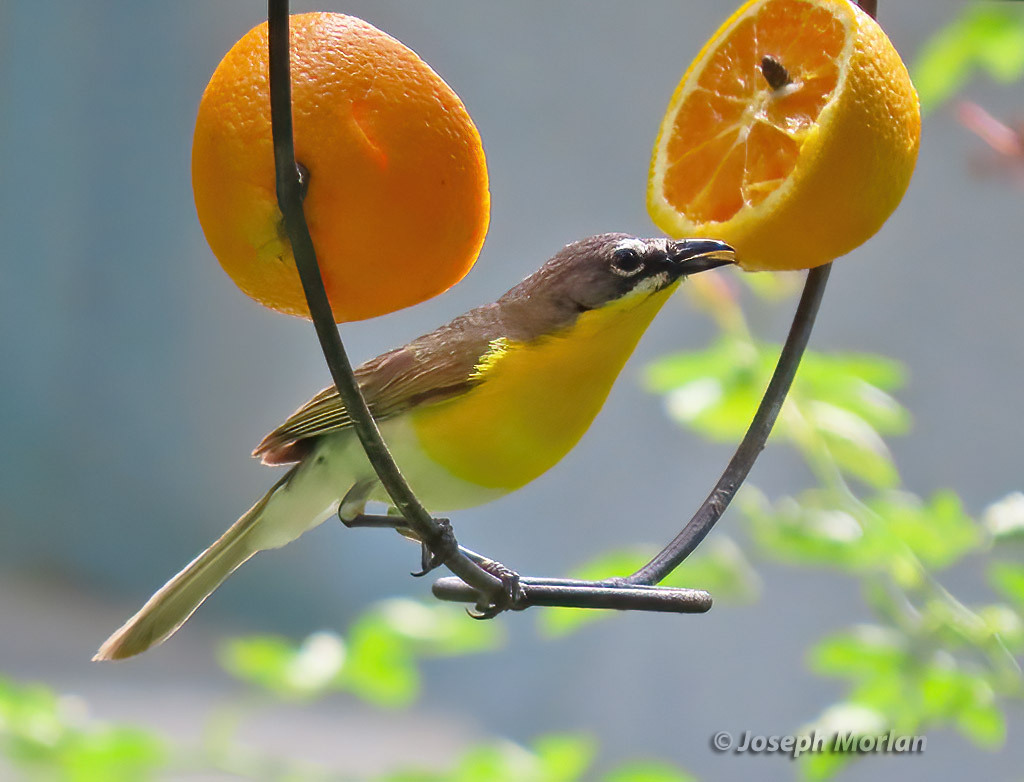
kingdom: Animalia
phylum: Chordata
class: Aves
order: Passeriformes
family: Parulidae
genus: Icteria
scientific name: Icteria virens
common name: Yellow-breasted chat
